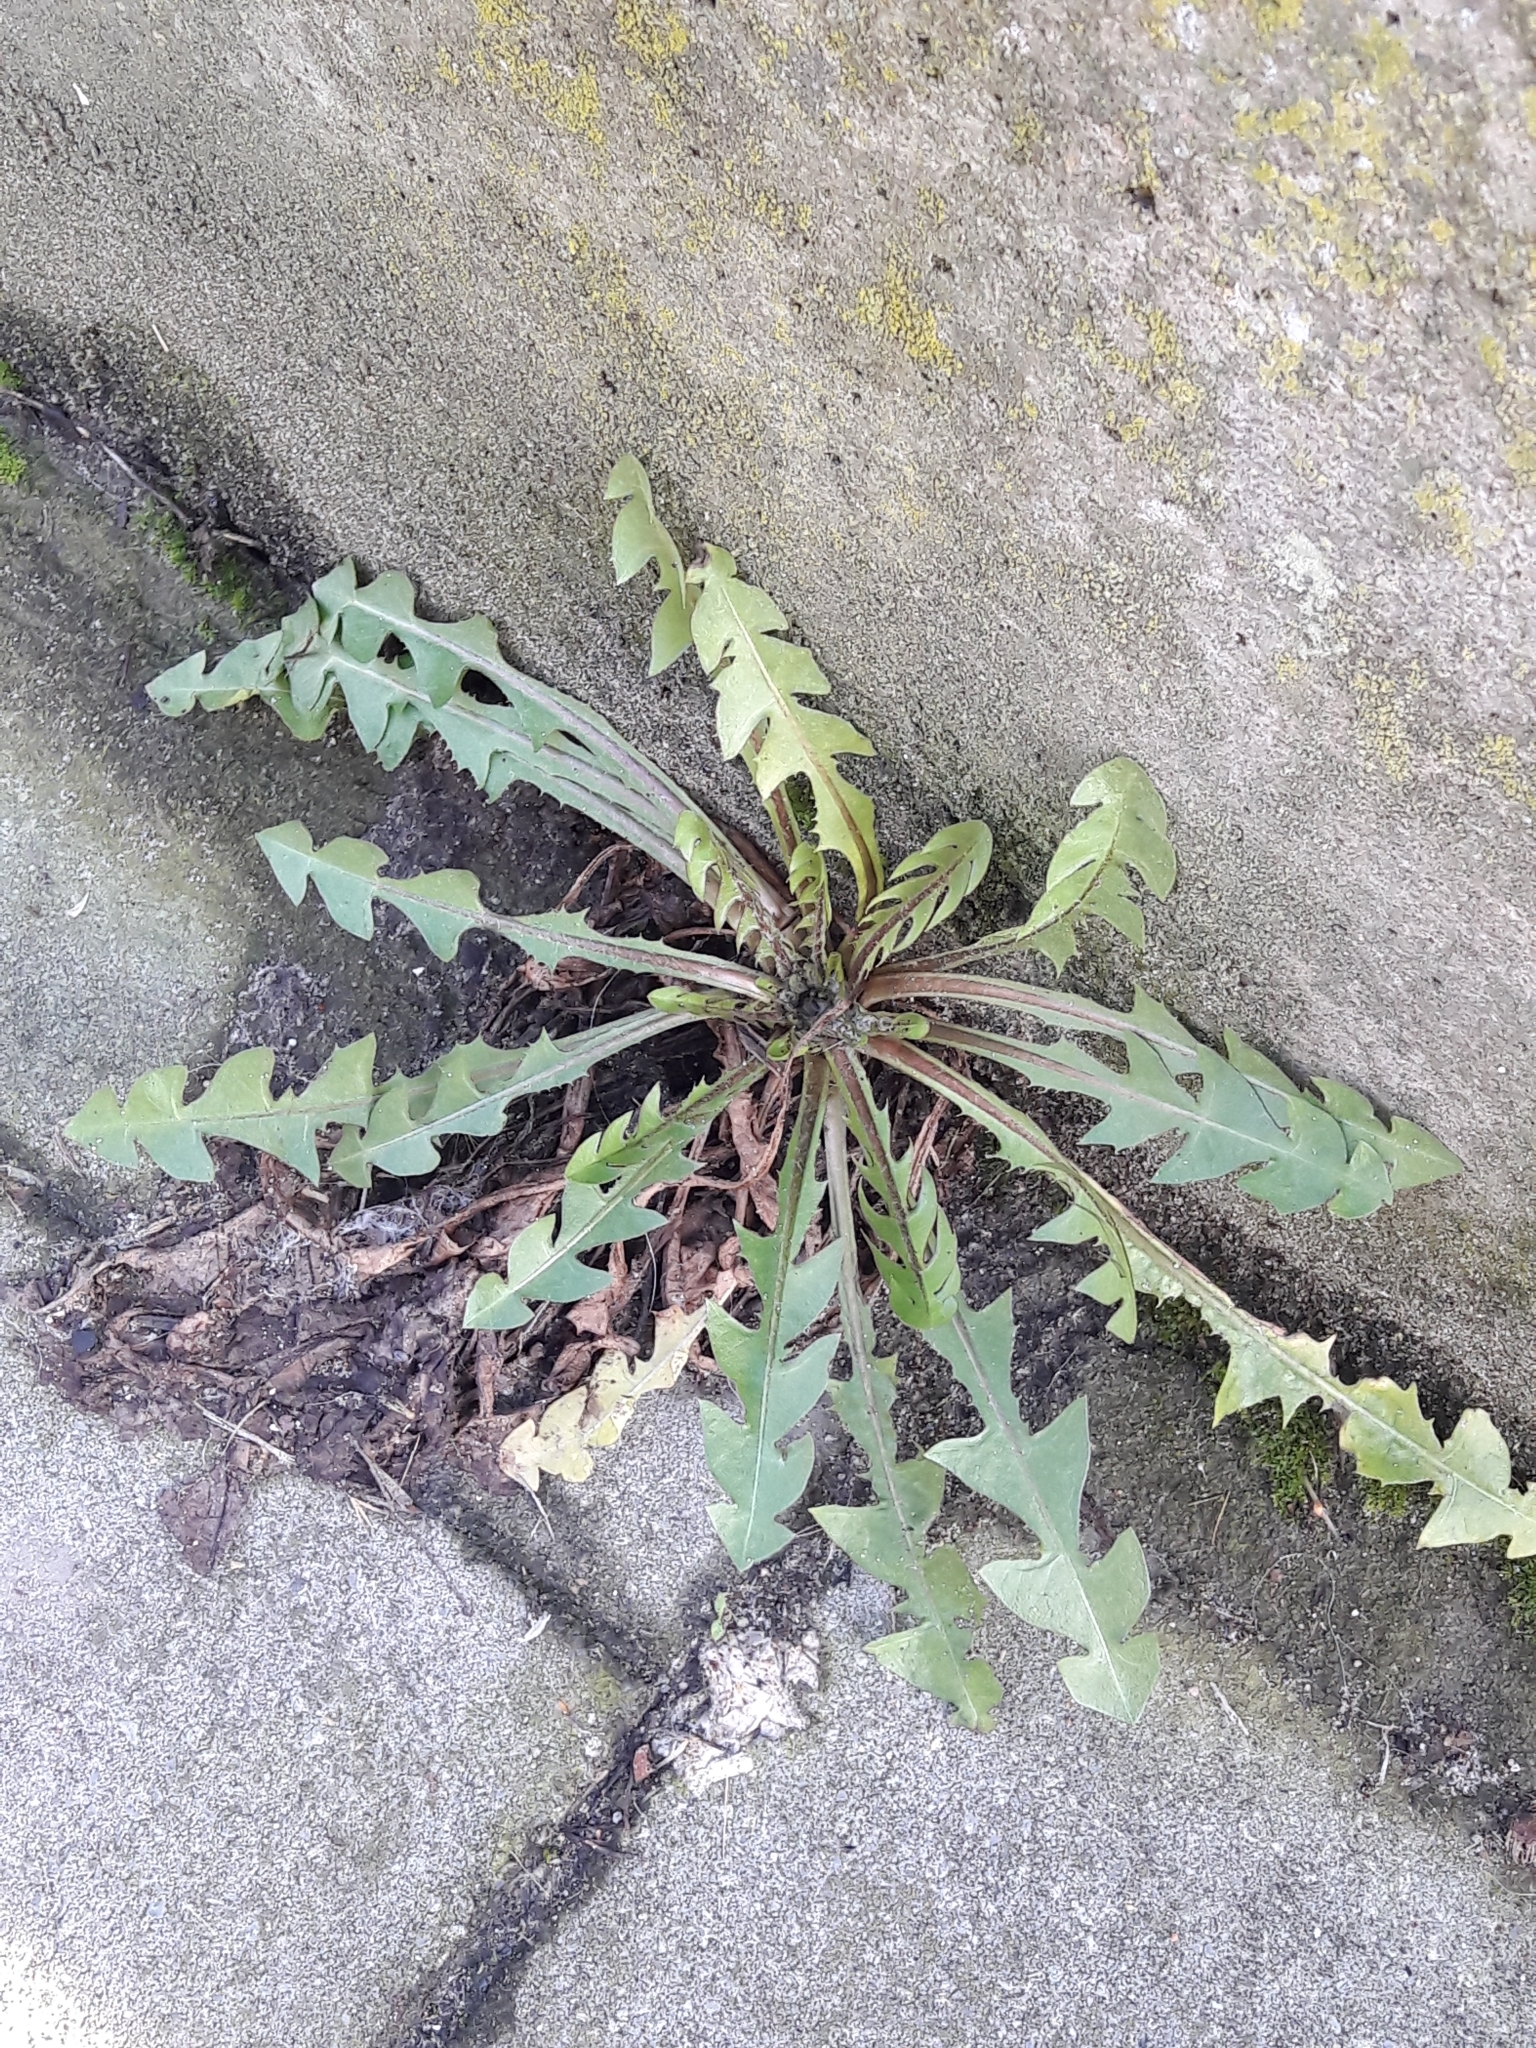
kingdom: Plantae
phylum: Tracheophyta
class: Magnoliopsida
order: Asterales
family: Asteraceae
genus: Taraxacum
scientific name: Taraxacum officinale
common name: Common dandelion
